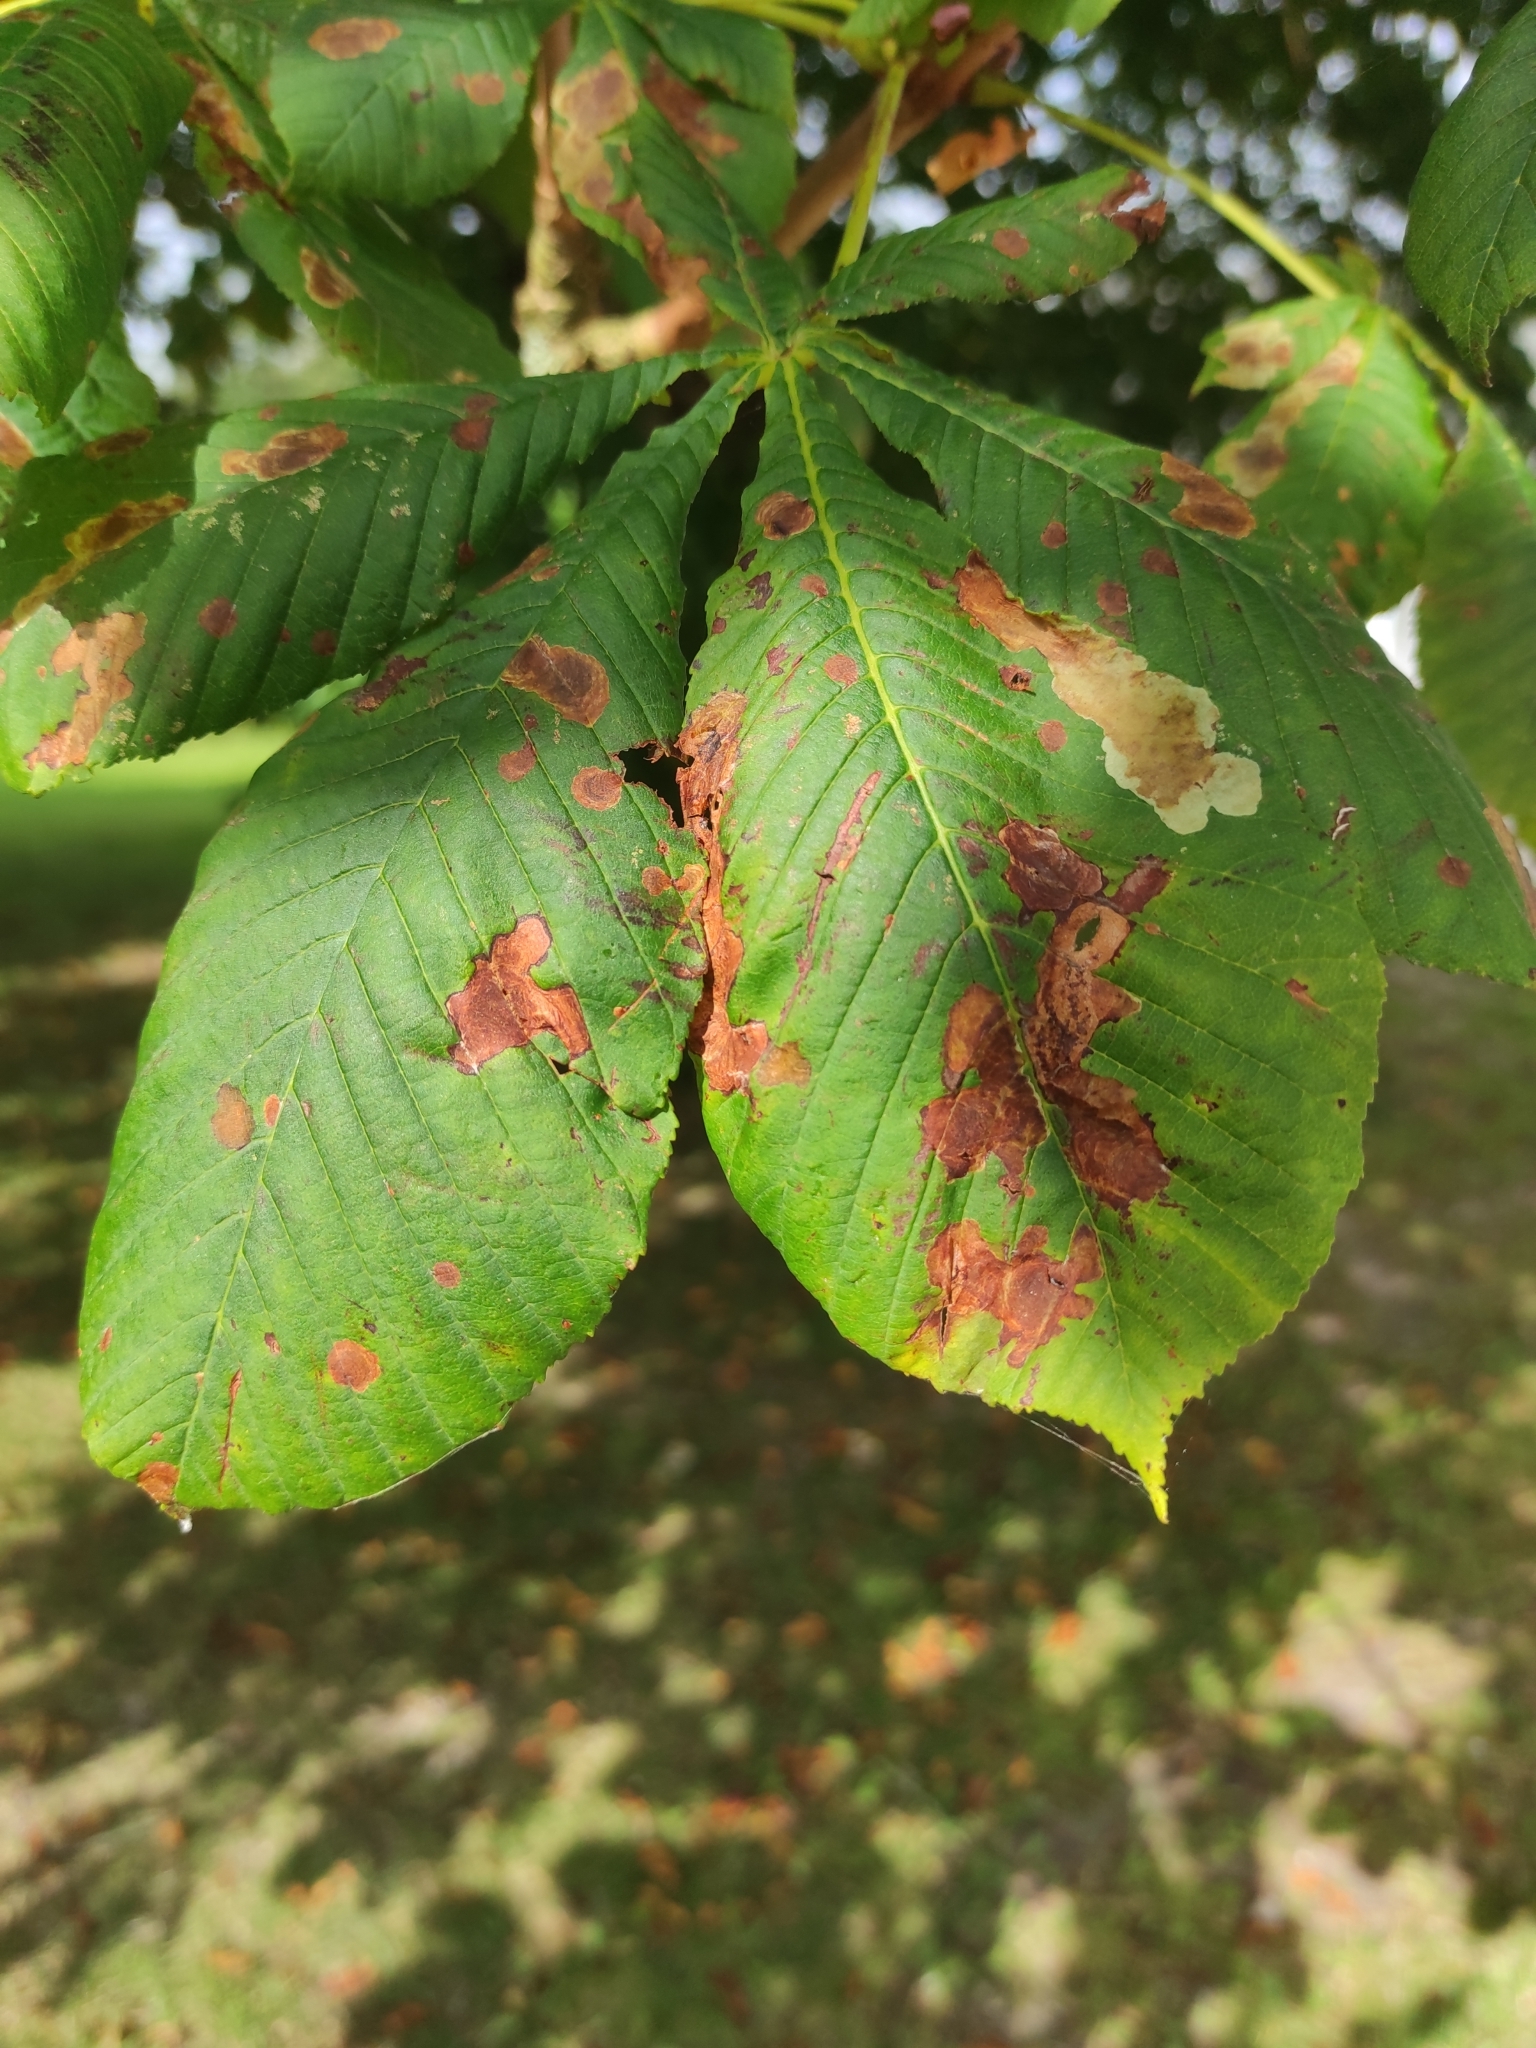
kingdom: Animalia
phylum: Arthropoda
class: Insecta
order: Lepidoptera
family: Gracillariidae
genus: Cameraria
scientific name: Cameraria ohridella
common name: Horse-chestnut leaf-miner
